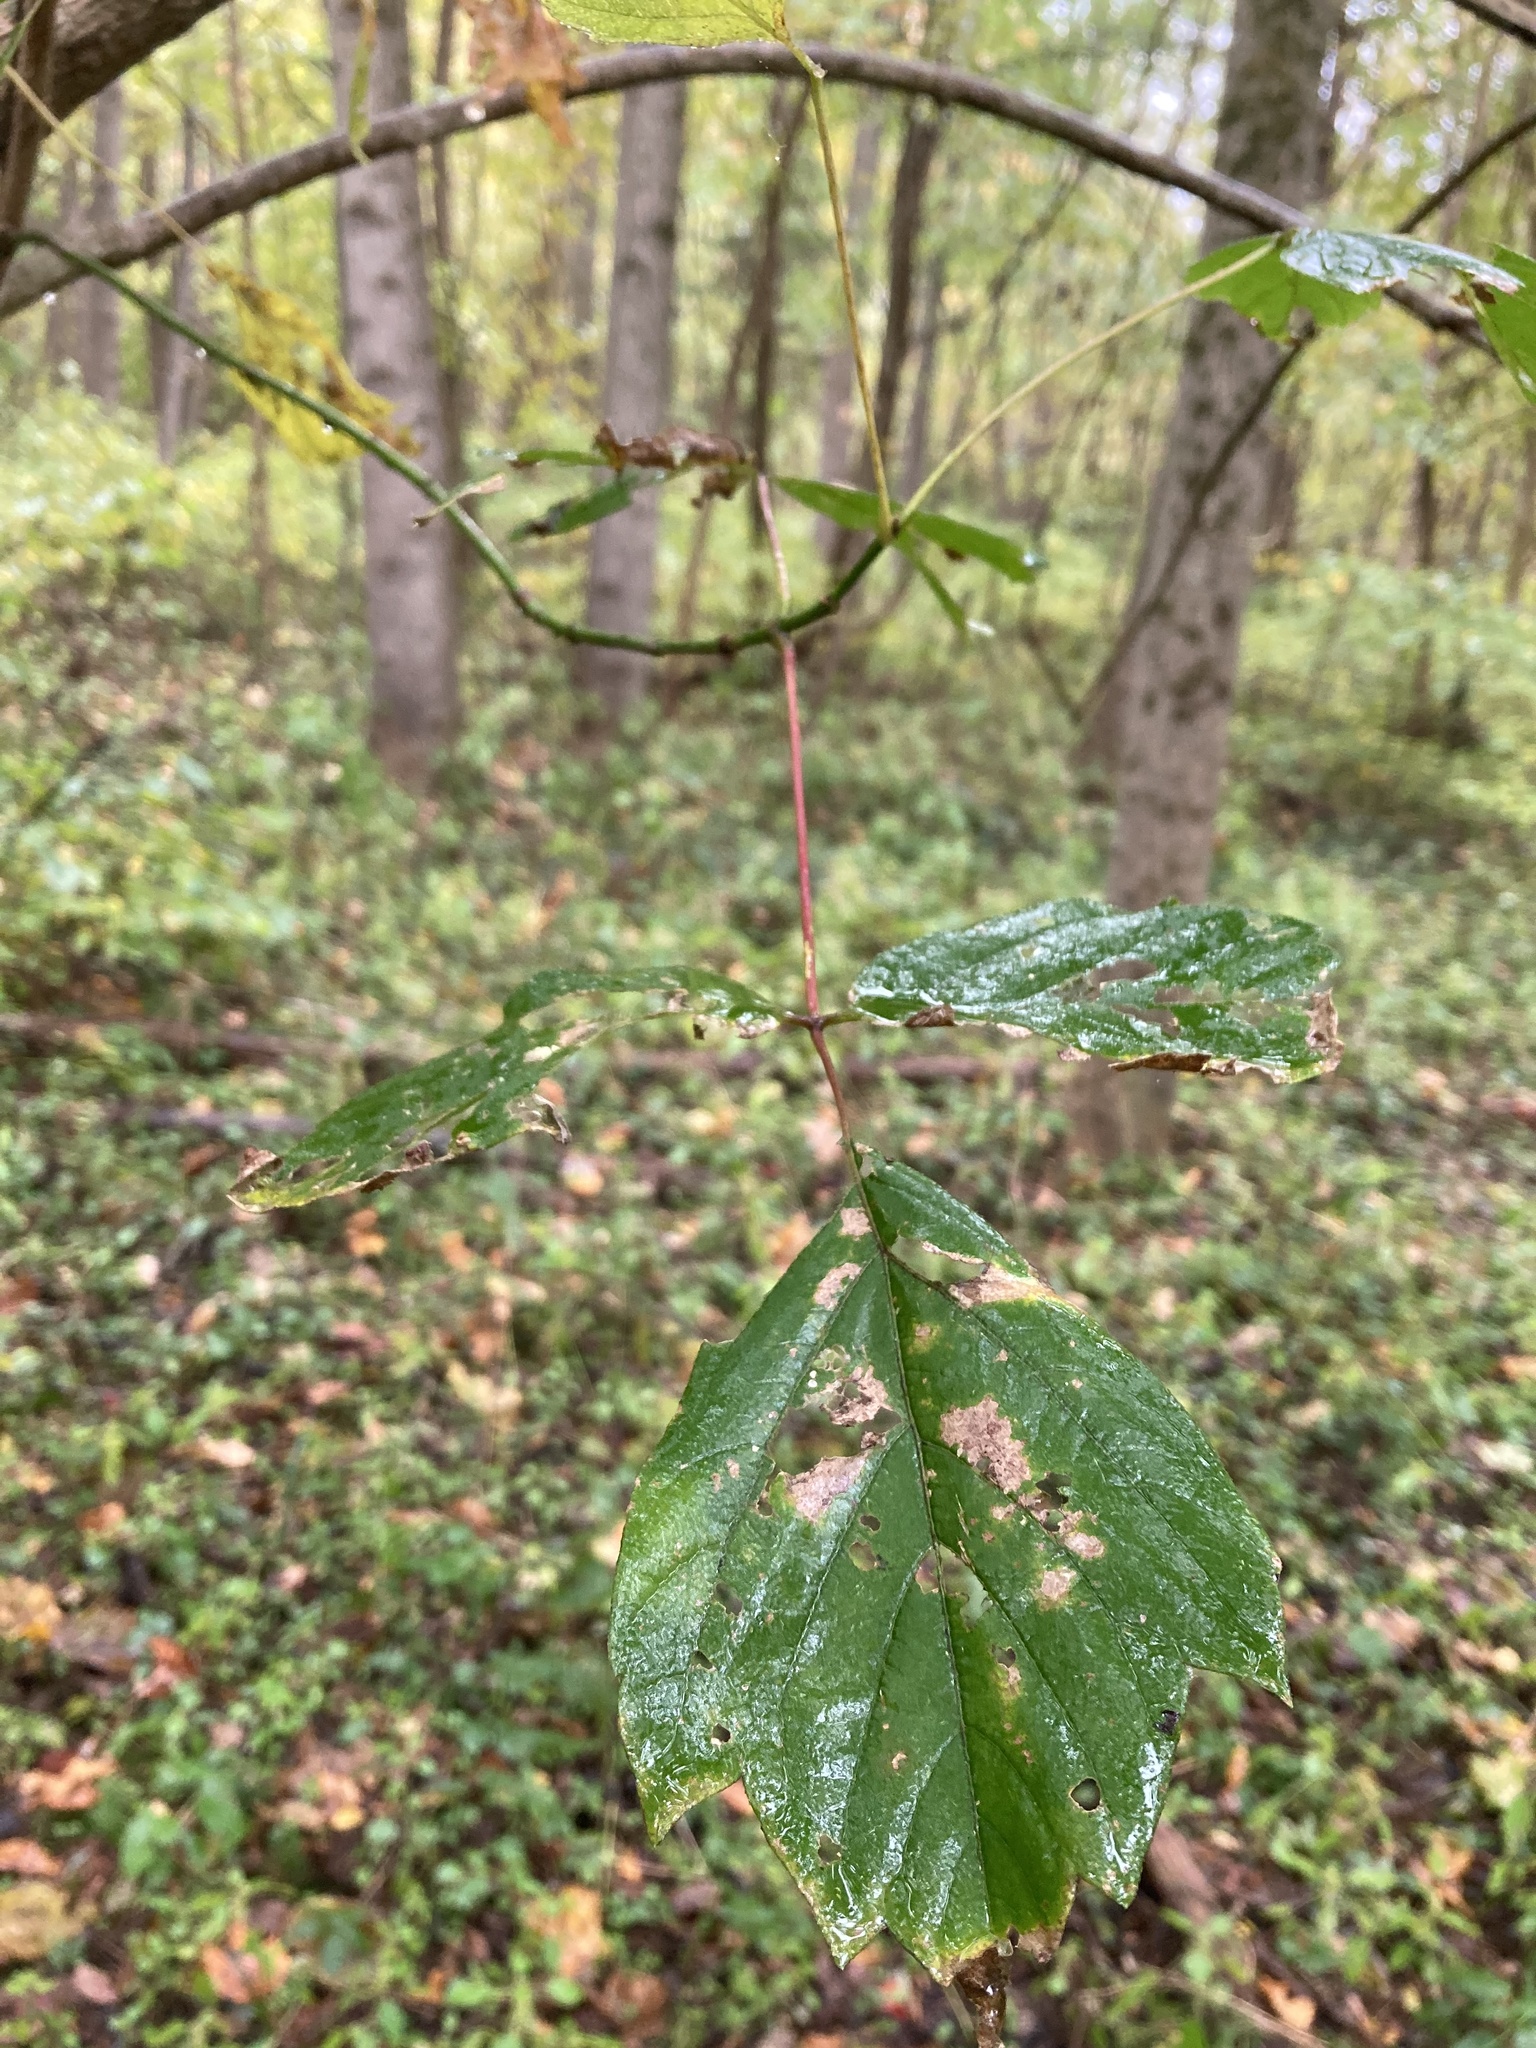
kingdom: Plantae
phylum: Tracheophyta
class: Magnoliopsida
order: Sapindales
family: Sapindaceae
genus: Acer
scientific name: Acer negundo
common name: Ashleaf maple
